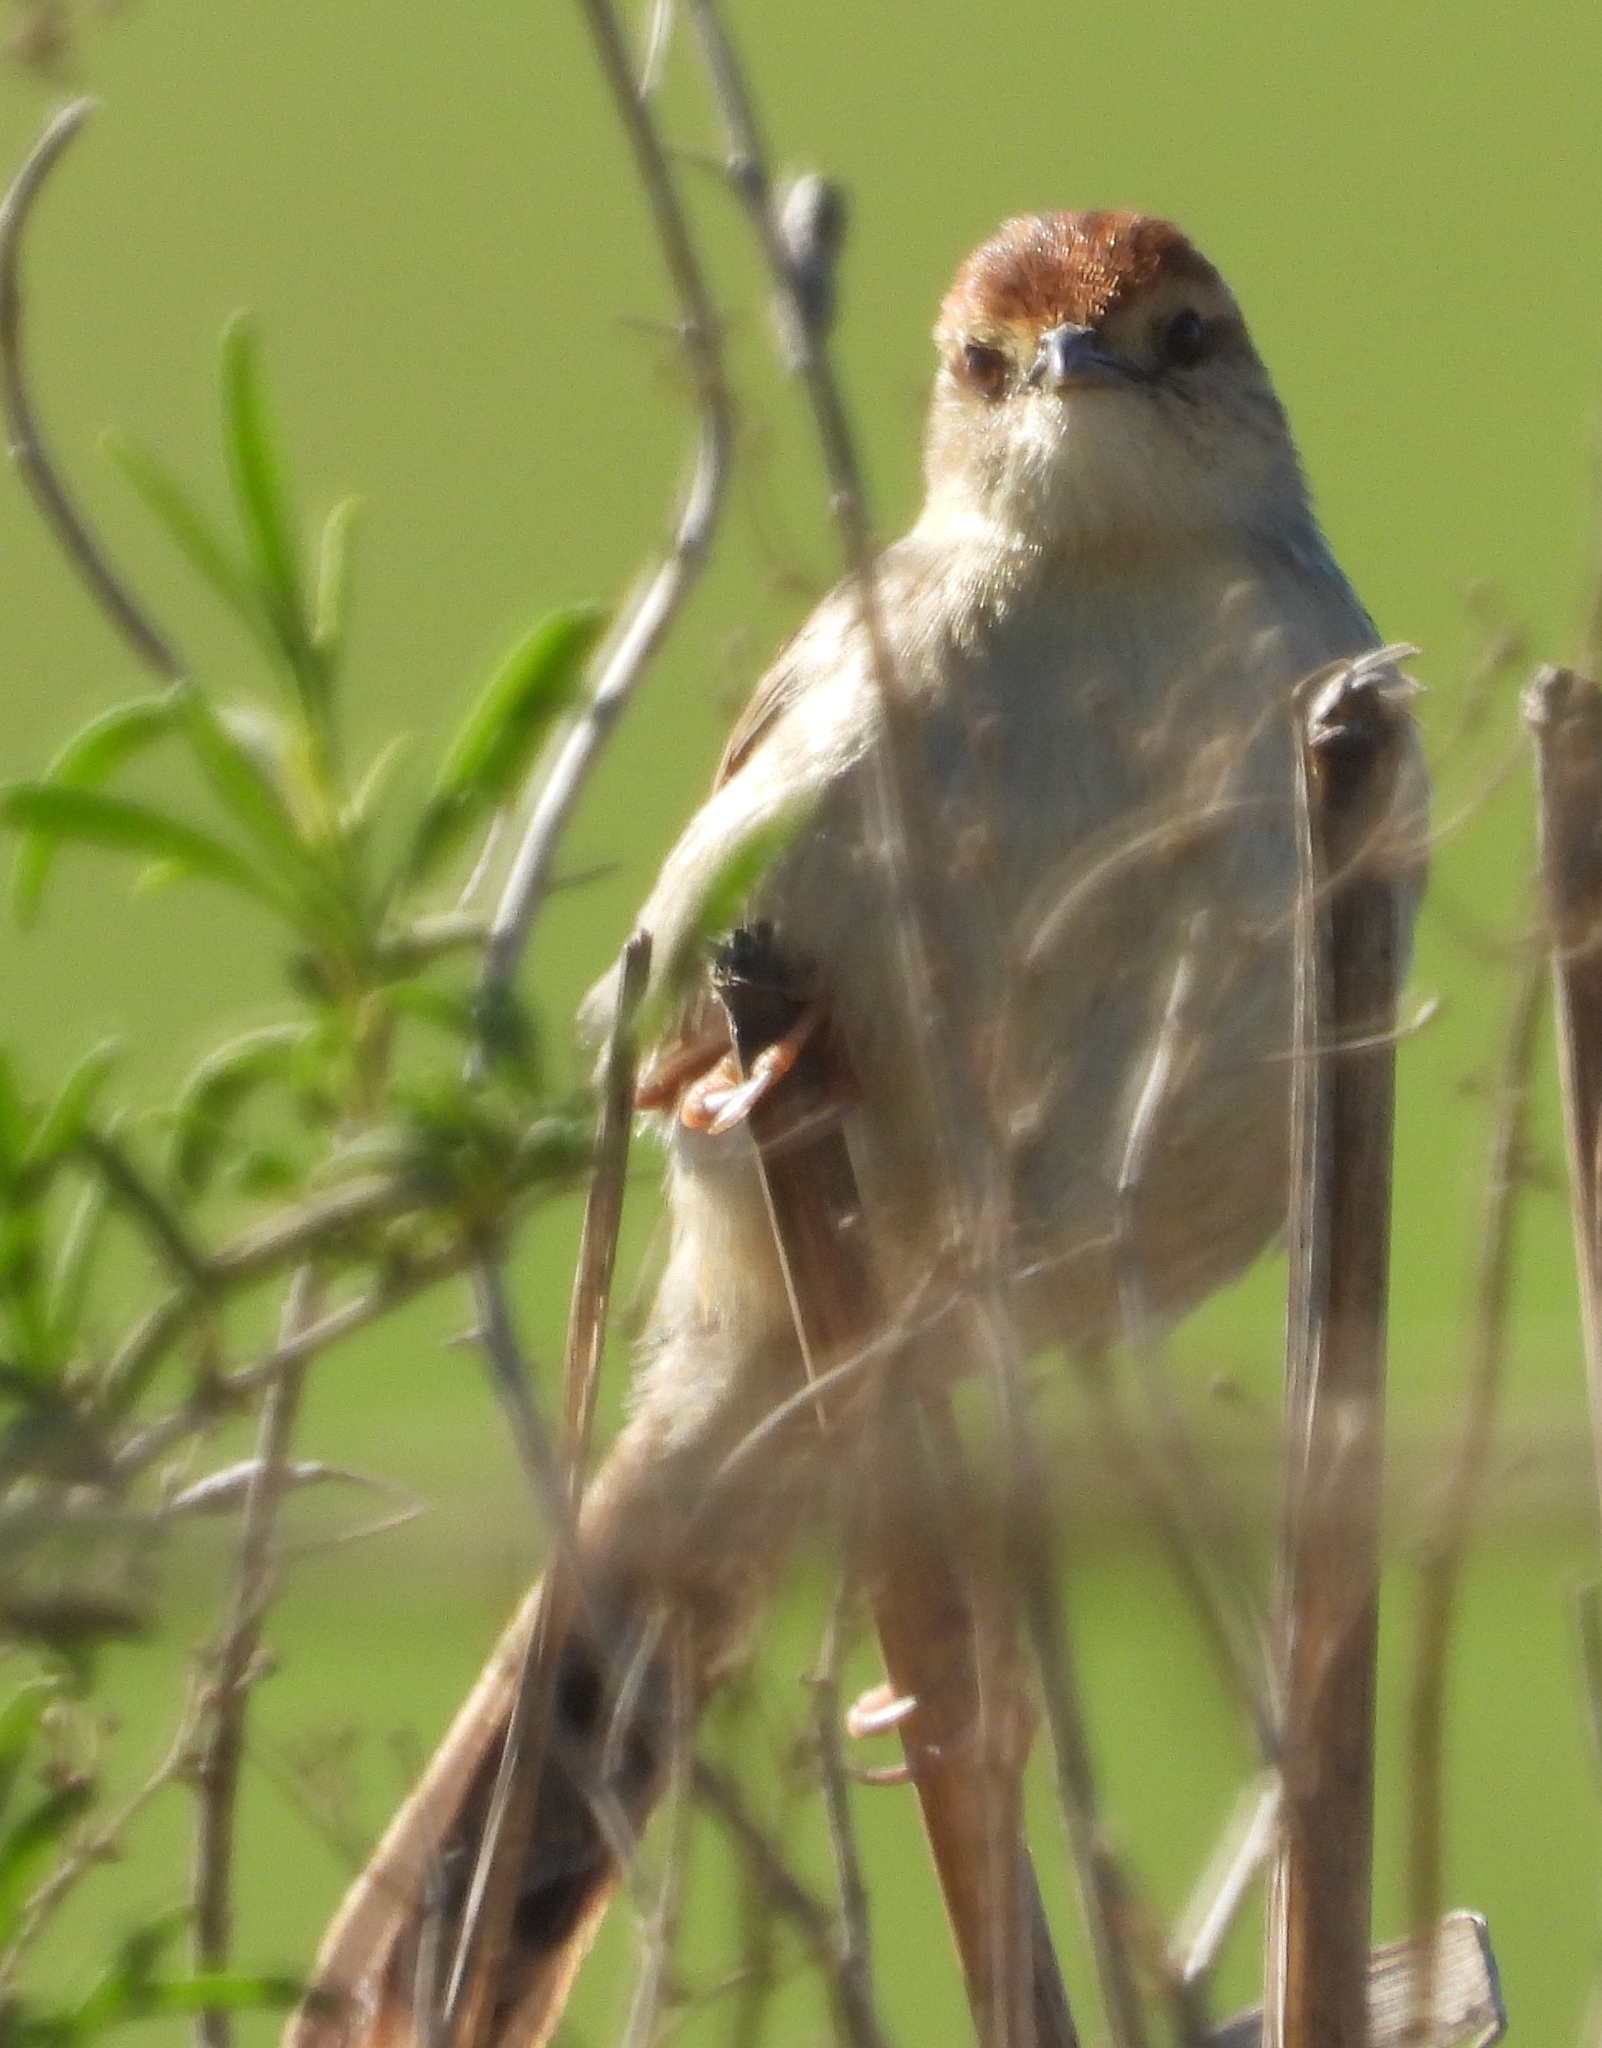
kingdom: Animalia
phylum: Chordata
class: Aves
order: Passeriformes
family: Cisticolidae
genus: Cisticola
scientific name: Cisticola tinniens
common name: Levaillant's cisticola
